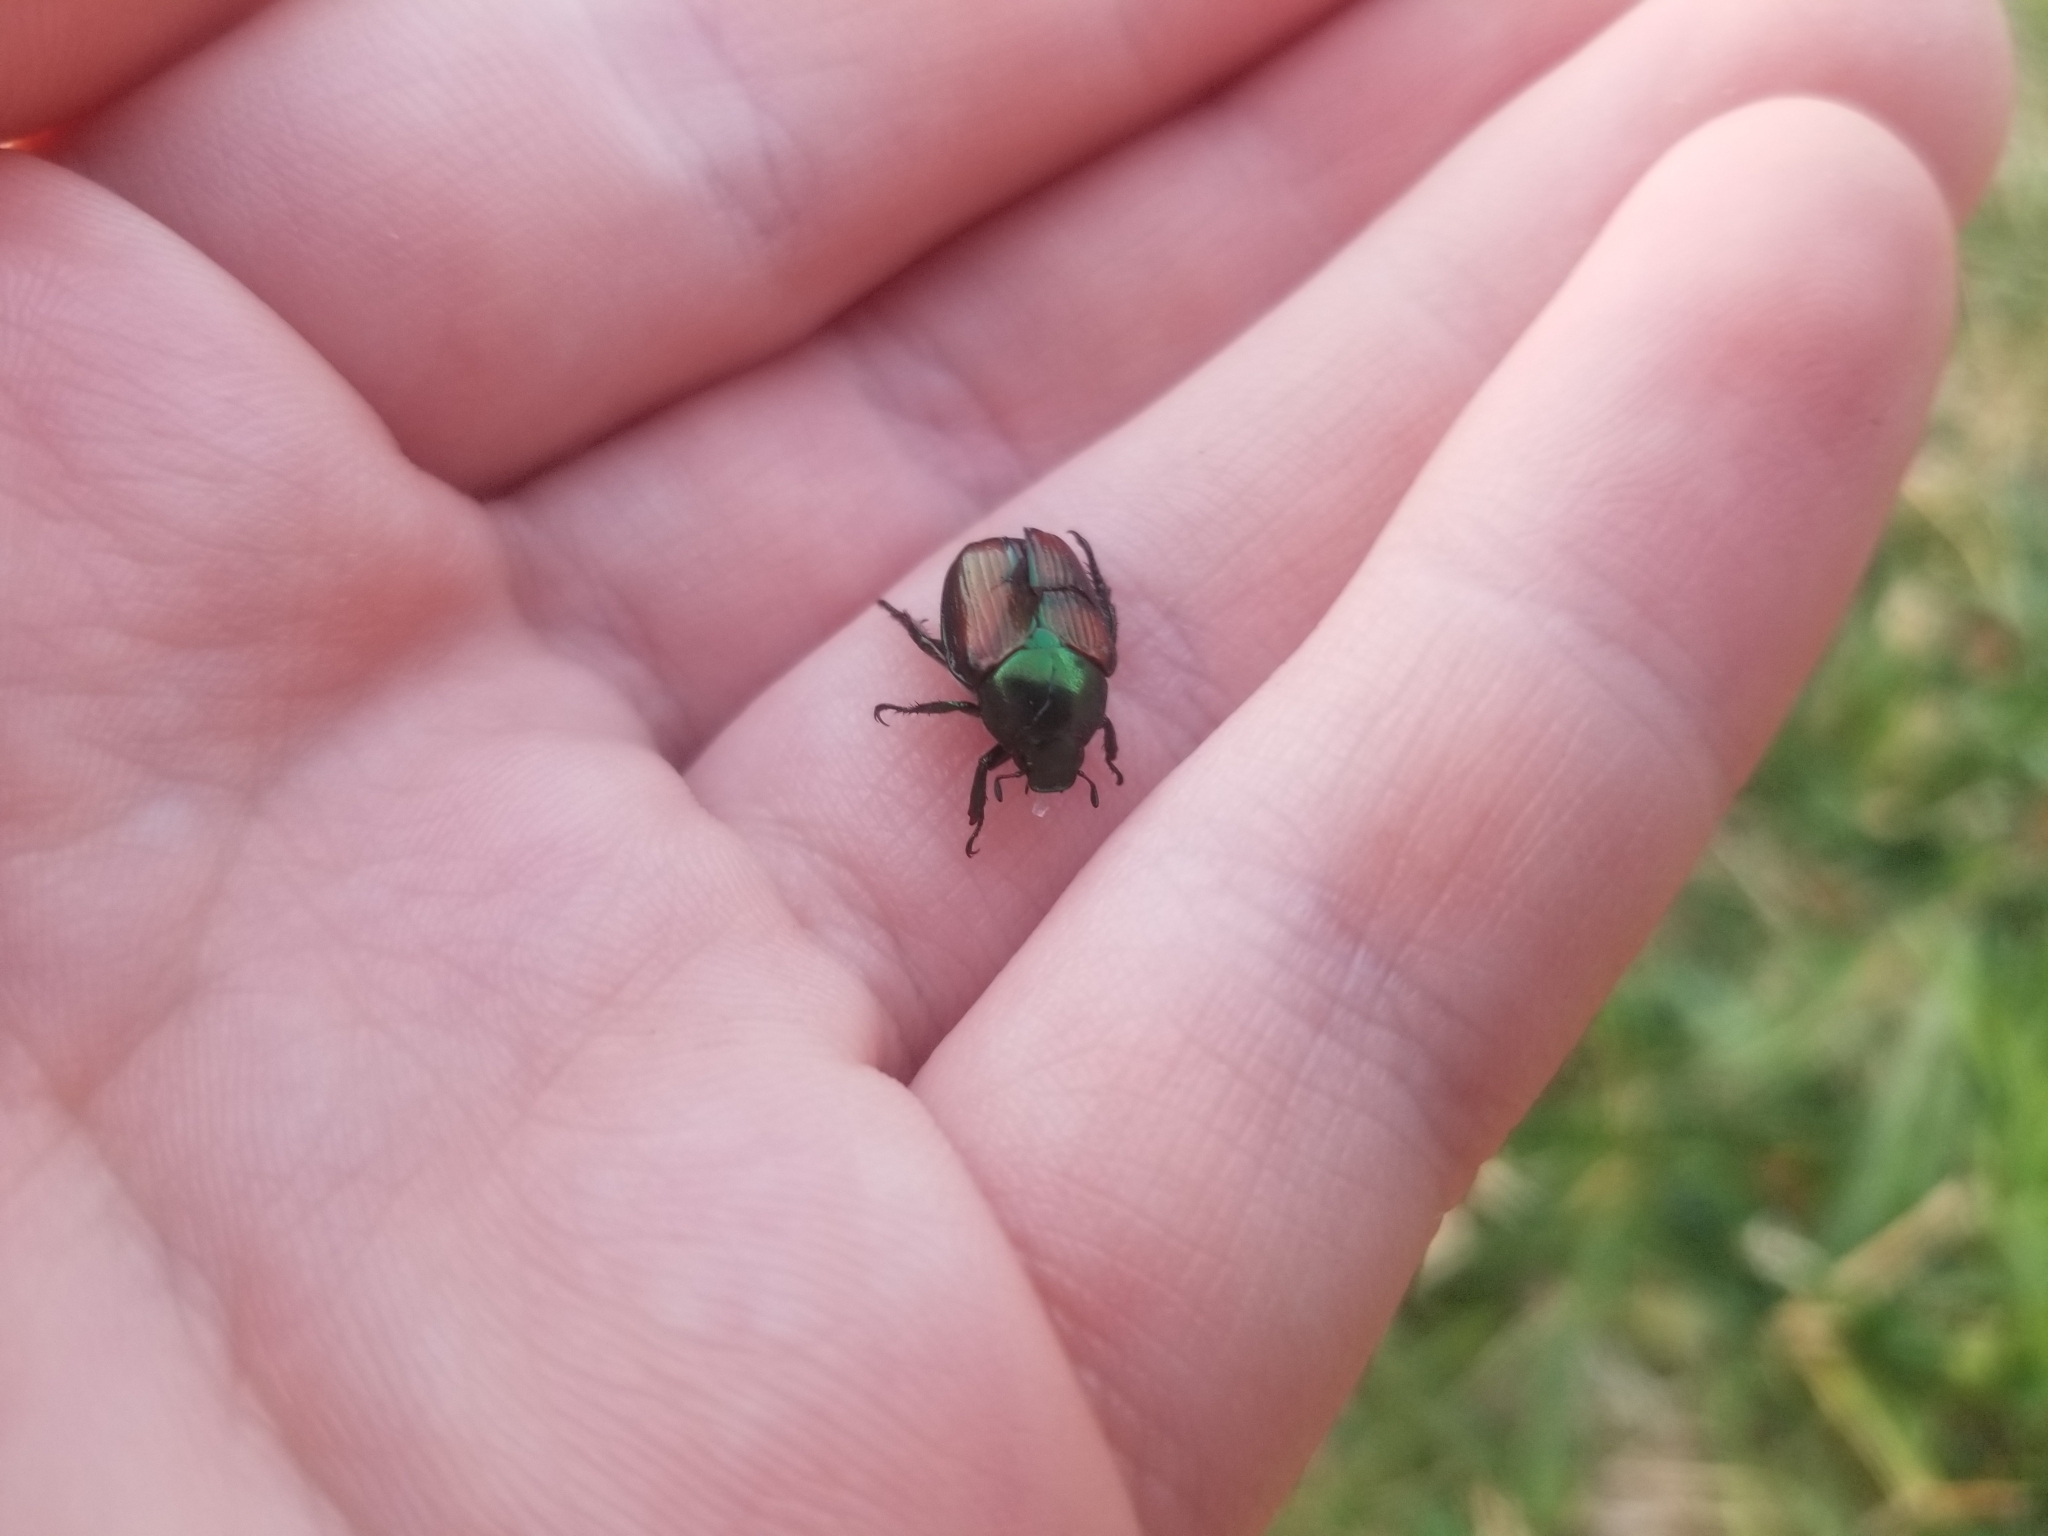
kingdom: Animalia
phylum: Arthropoda
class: Insecta
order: Coleoptera
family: Scarabaeidae
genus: Popillia
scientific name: Popillia japonica
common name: Japanese beetle
